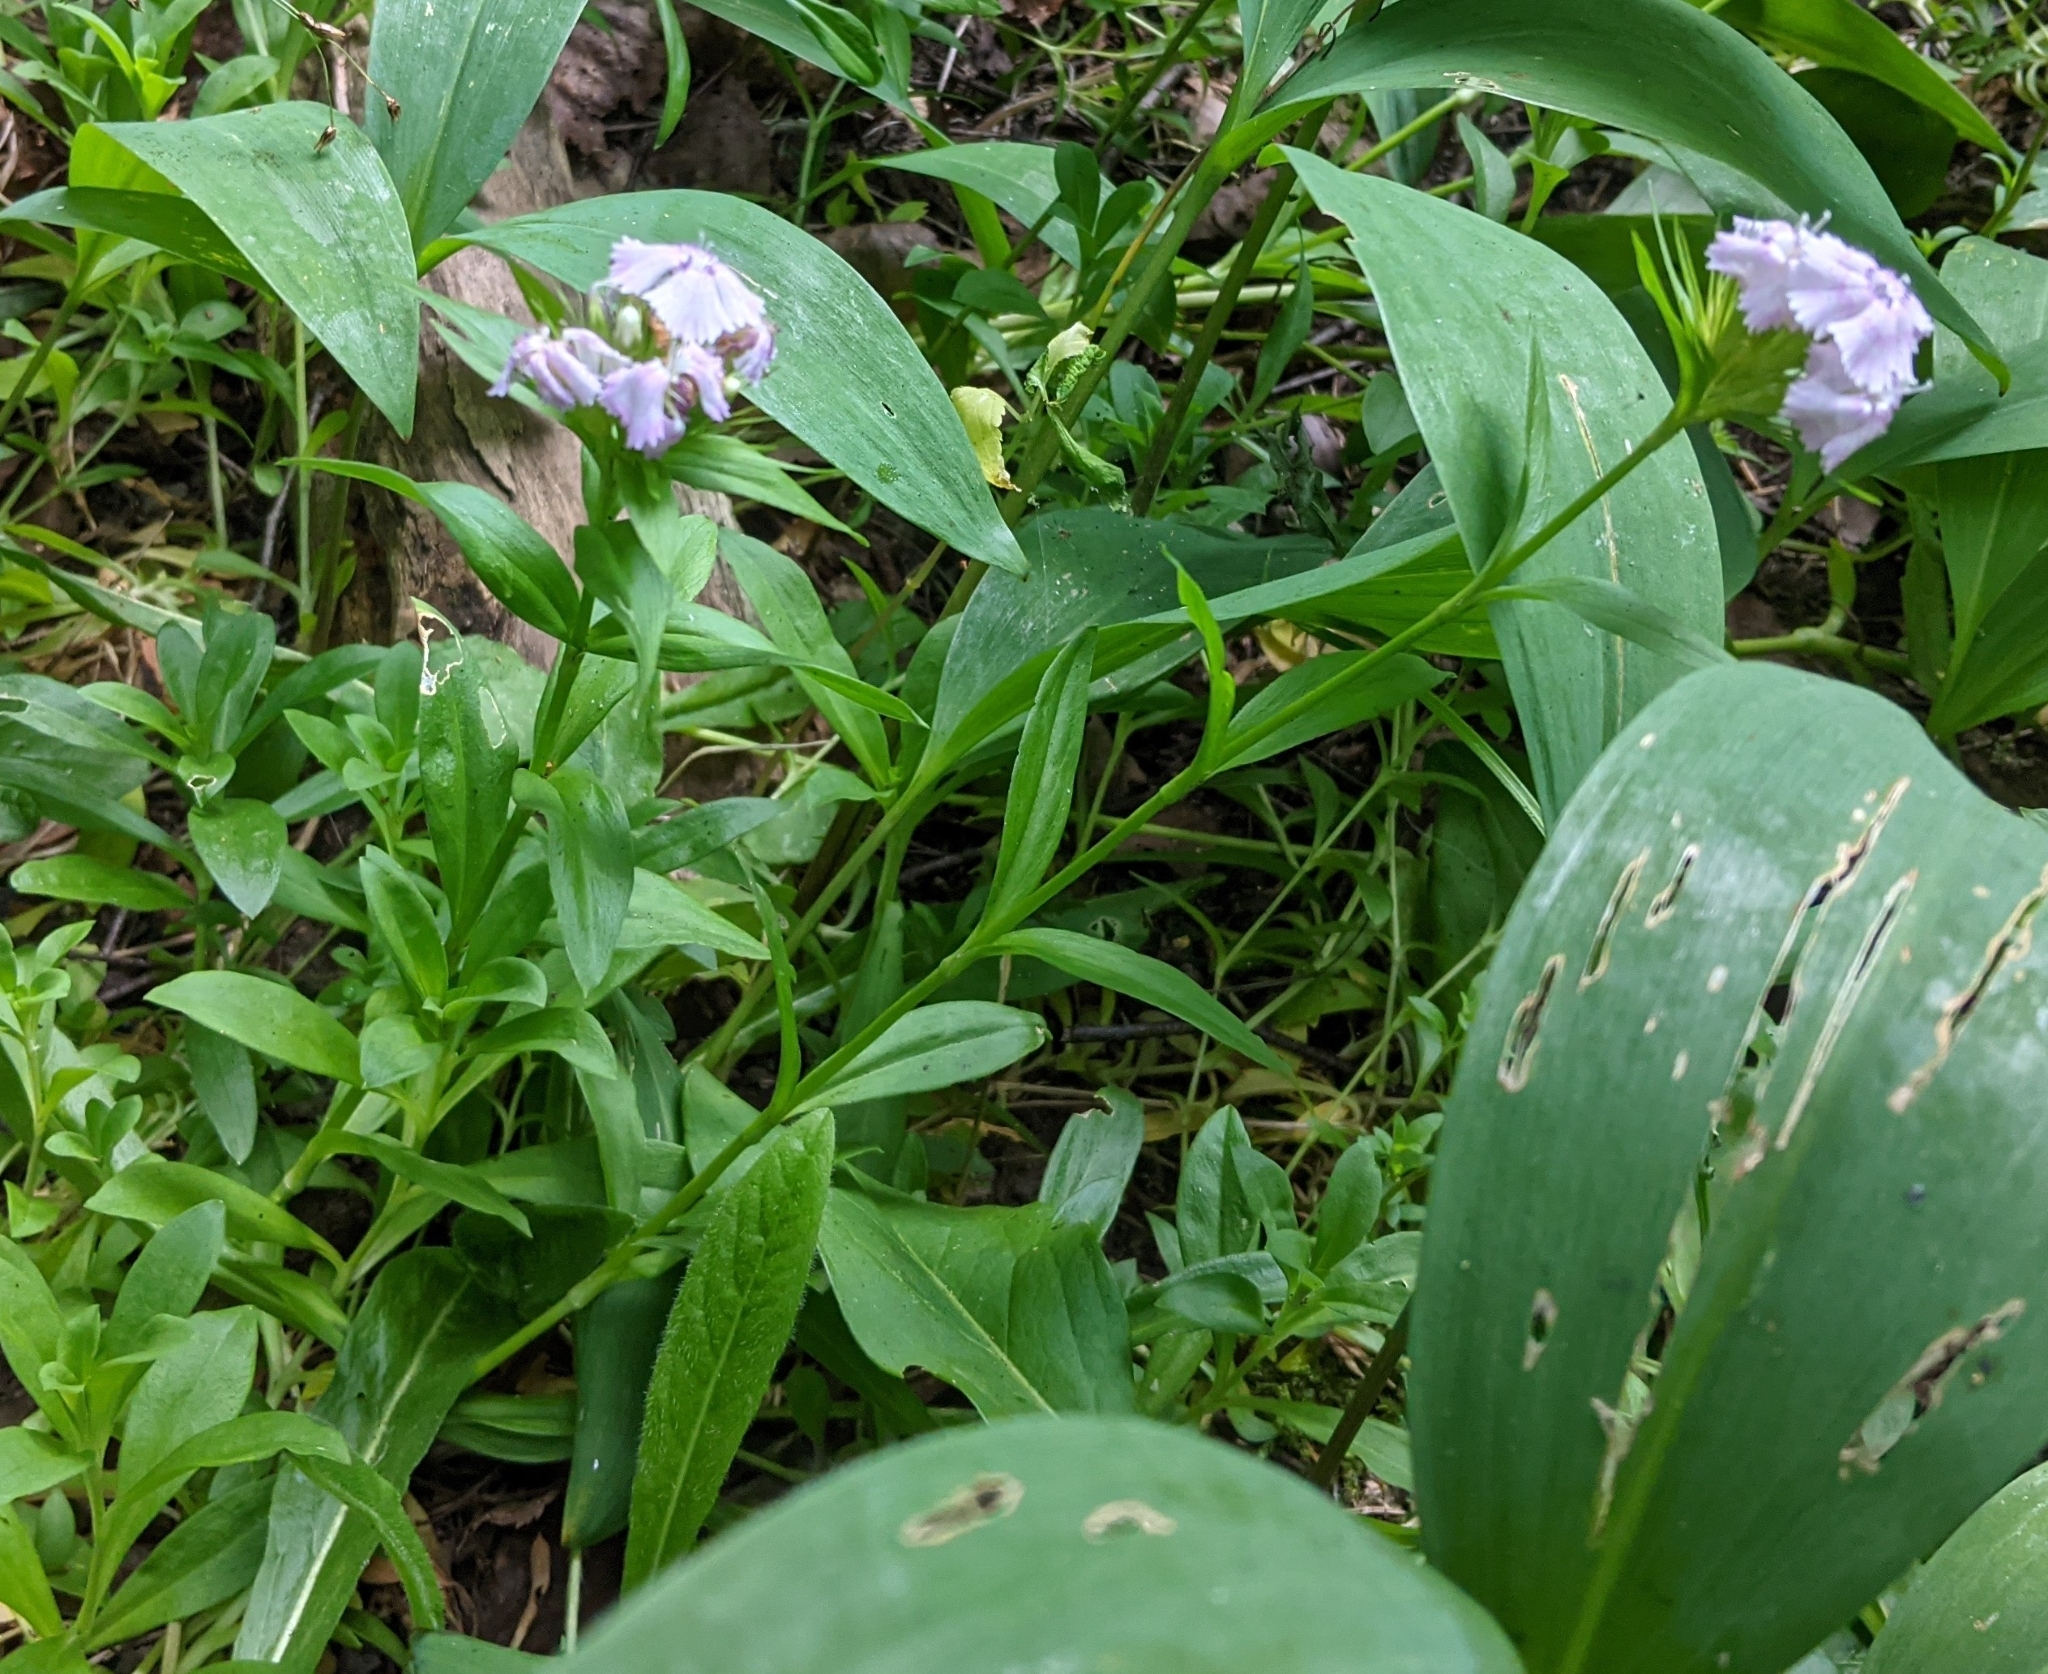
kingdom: Plantae
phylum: Tracheophyta
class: Magnoliopsida
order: Caryophyllales
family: Caryophyllaceae
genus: Dianthus
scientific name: Dianthus barbatus
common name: Sweet-william
